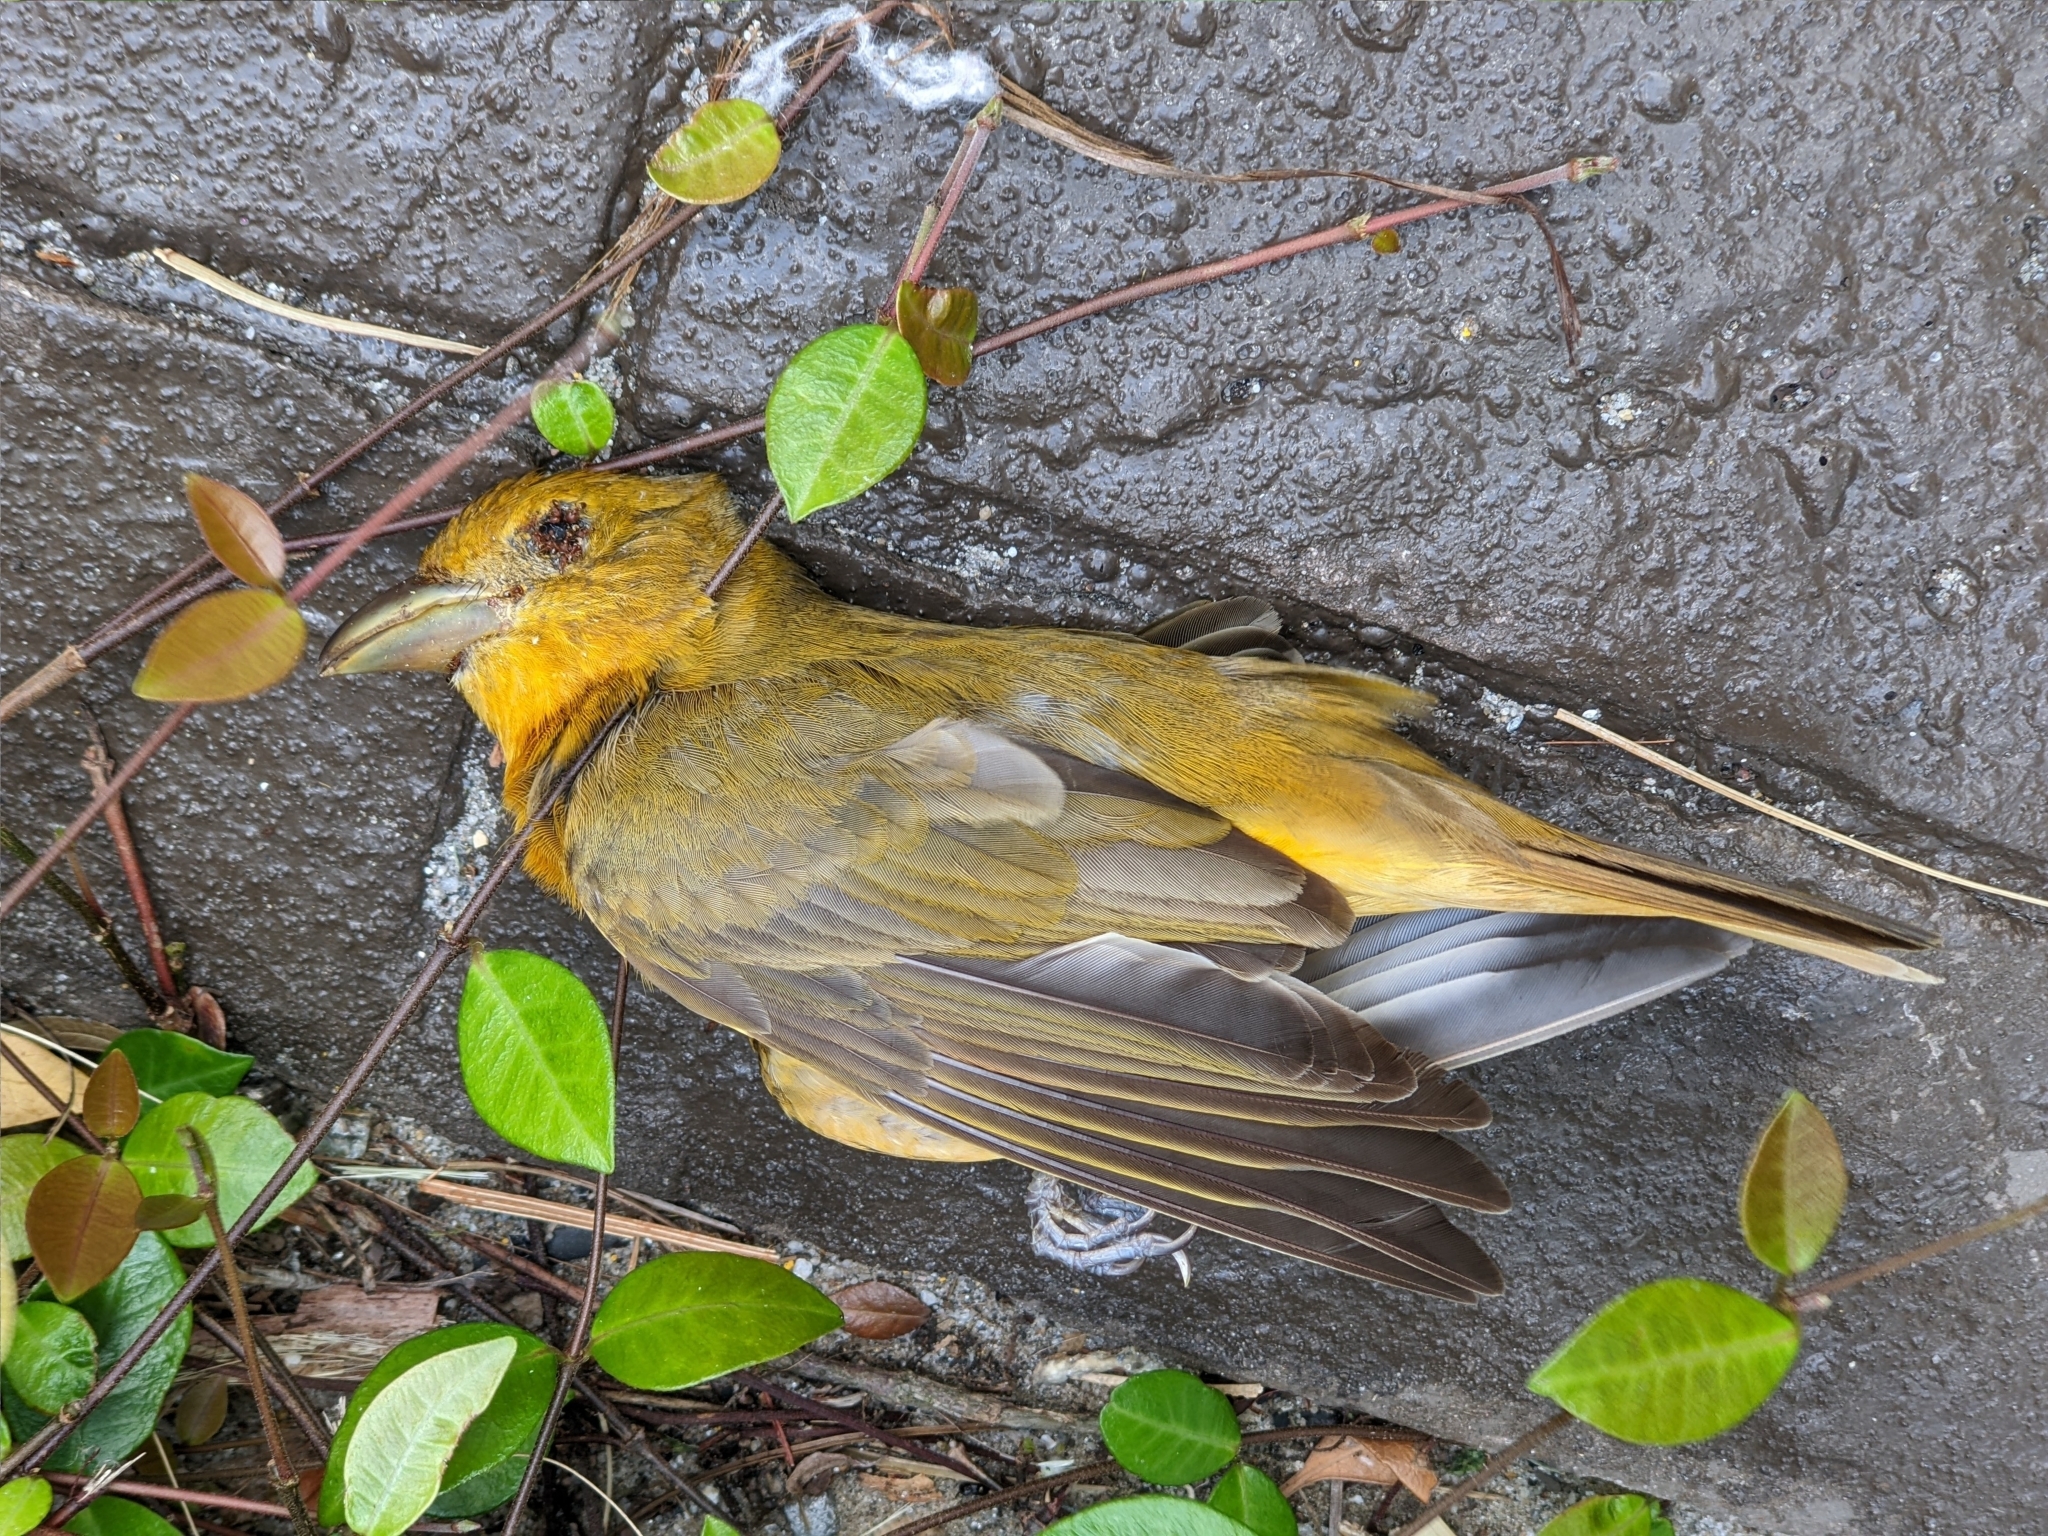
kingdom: Animalia
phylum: Chordata
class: Aves
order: Passeriformes
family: Cardinalidae
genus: Piranga
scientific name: Piranga rubra
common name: Summer tanager
